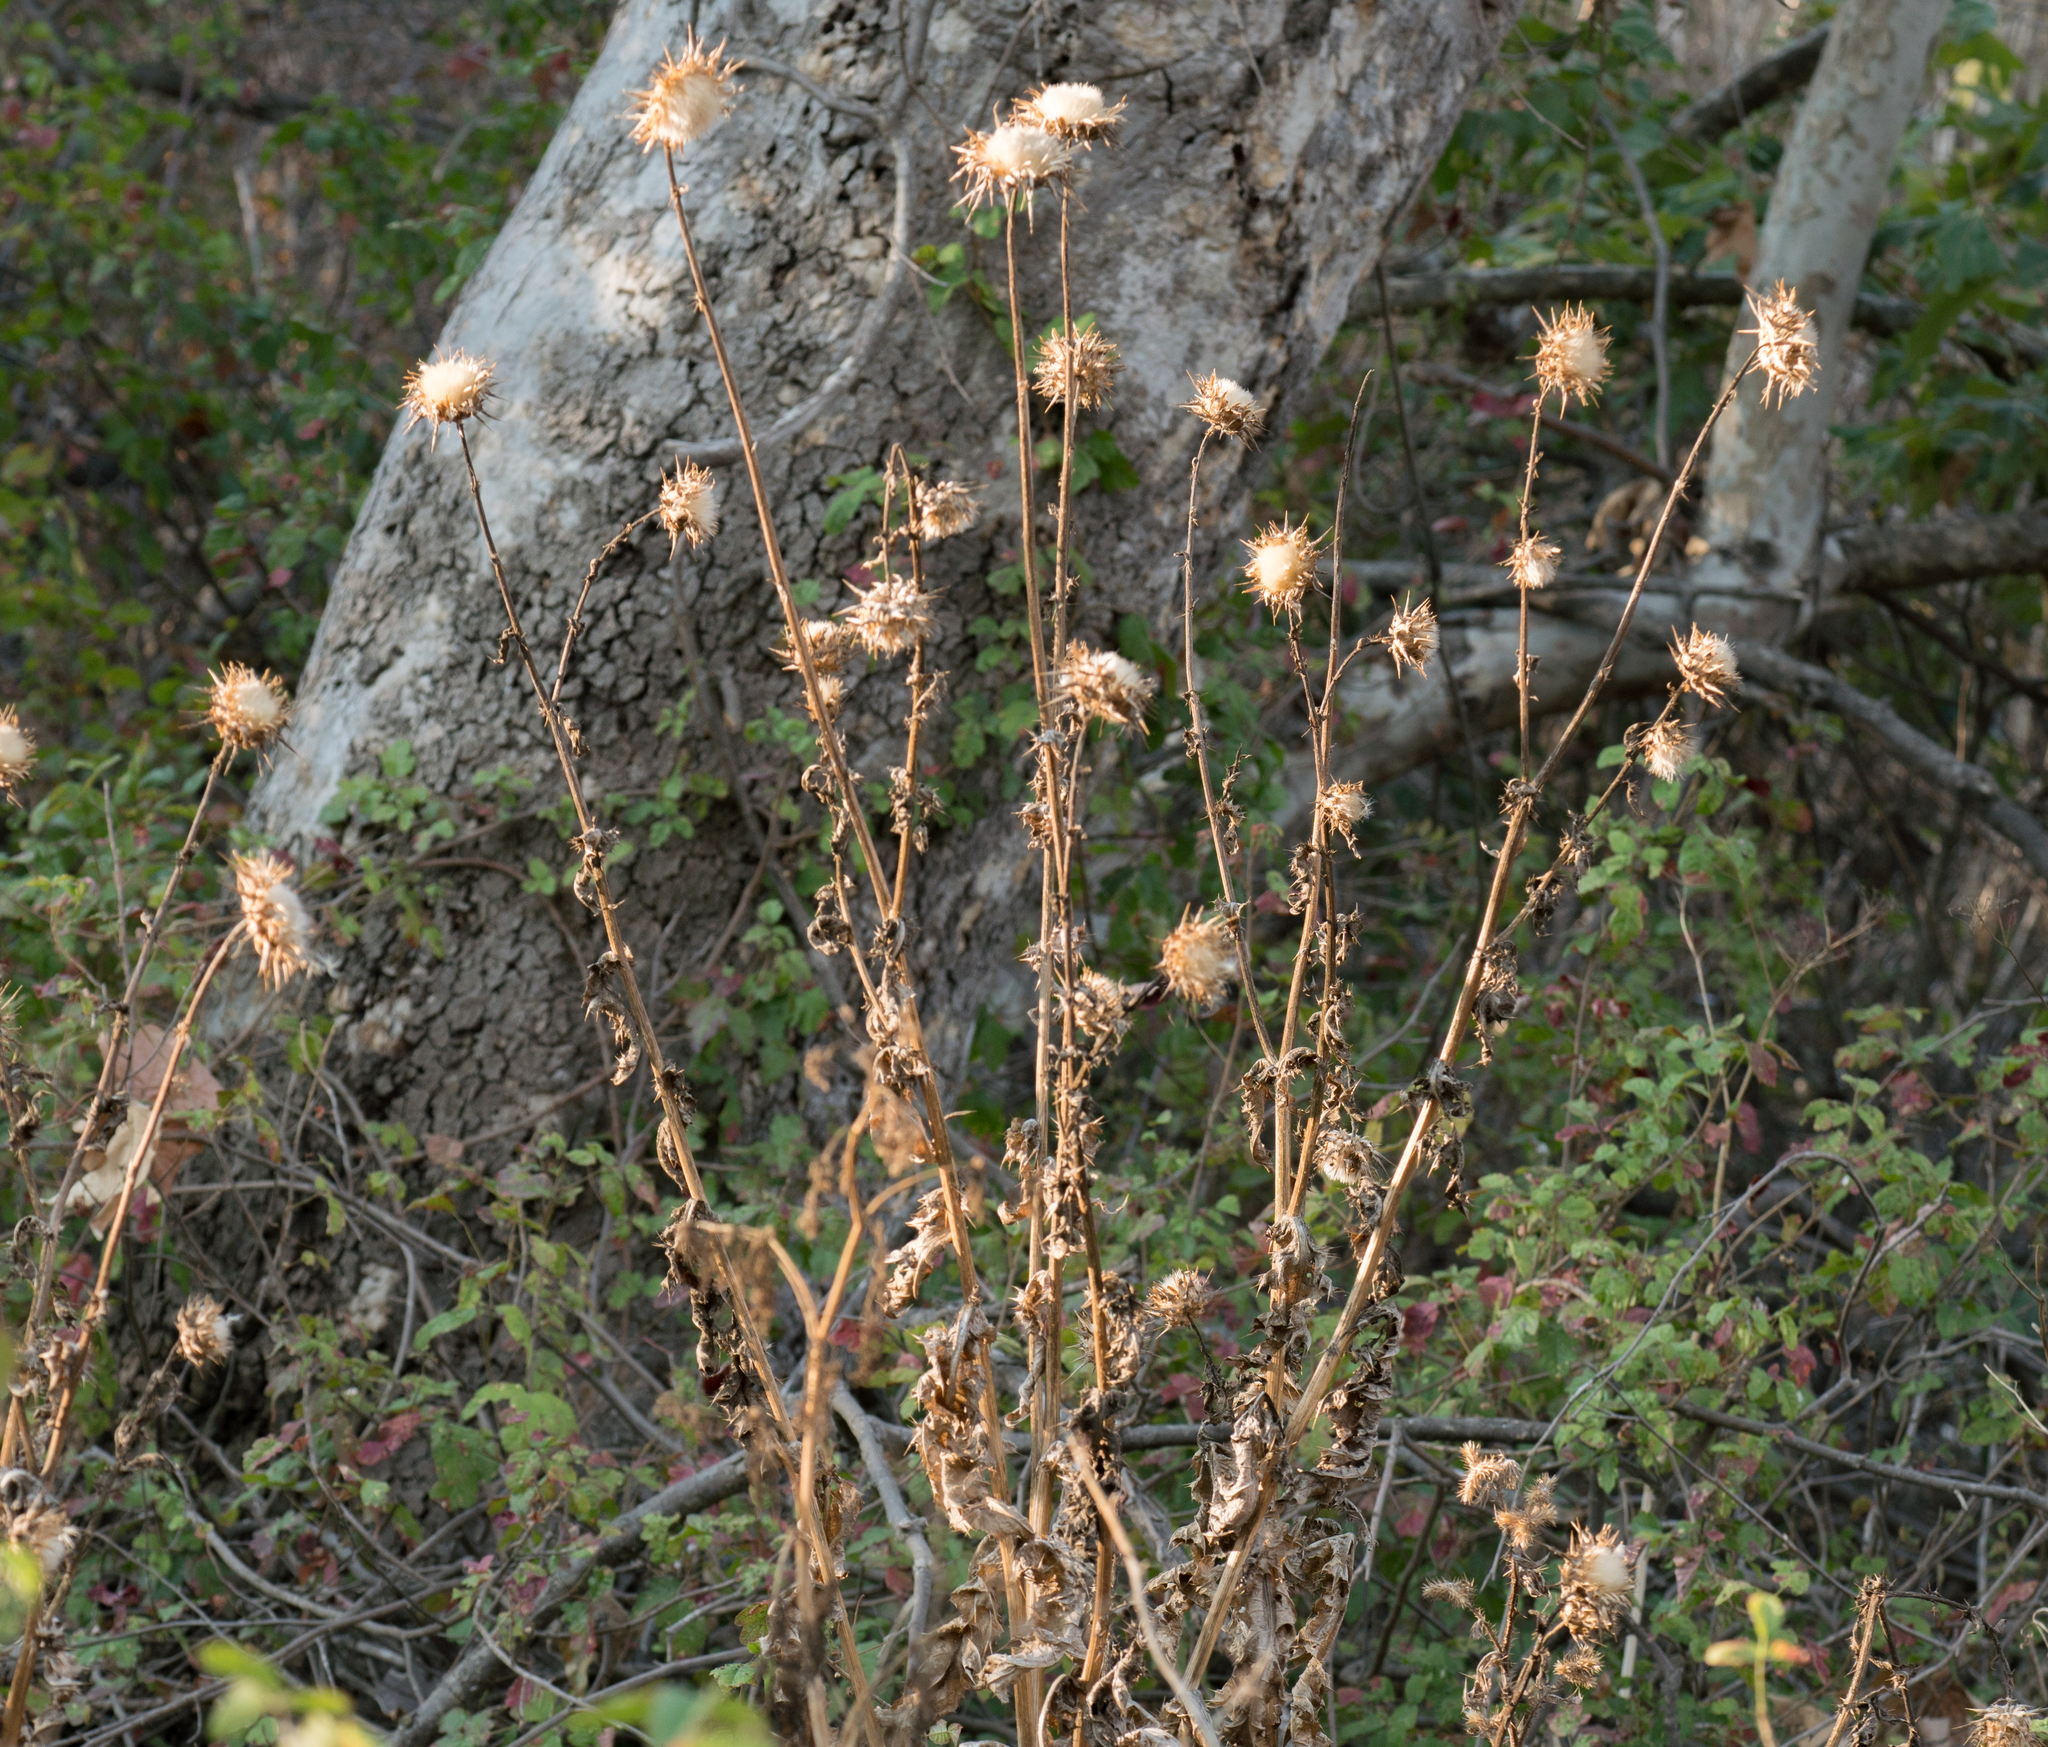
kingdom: Plantae
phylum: Tracheophyta
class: Magnoliopsida
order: Asterales
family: Asteraceae
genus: Silybum
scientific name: Silybum marianum
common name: Milk thistle
